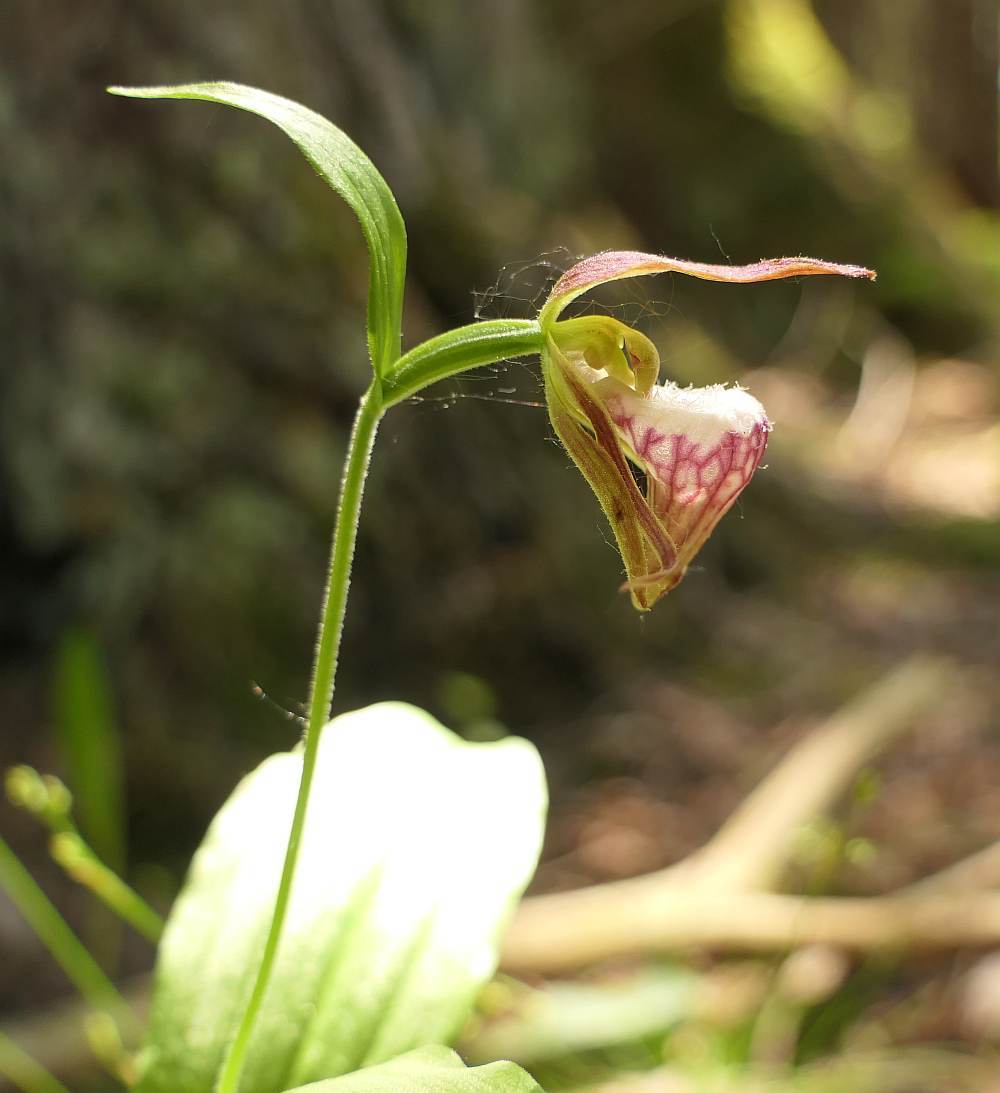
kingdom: Plantae
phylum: Tracheophyta
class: Liliopsida
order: Asparagales
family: Orchidaceae
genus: Cypripedium
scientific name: Cypripedium arietinum
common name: Ram's-head
